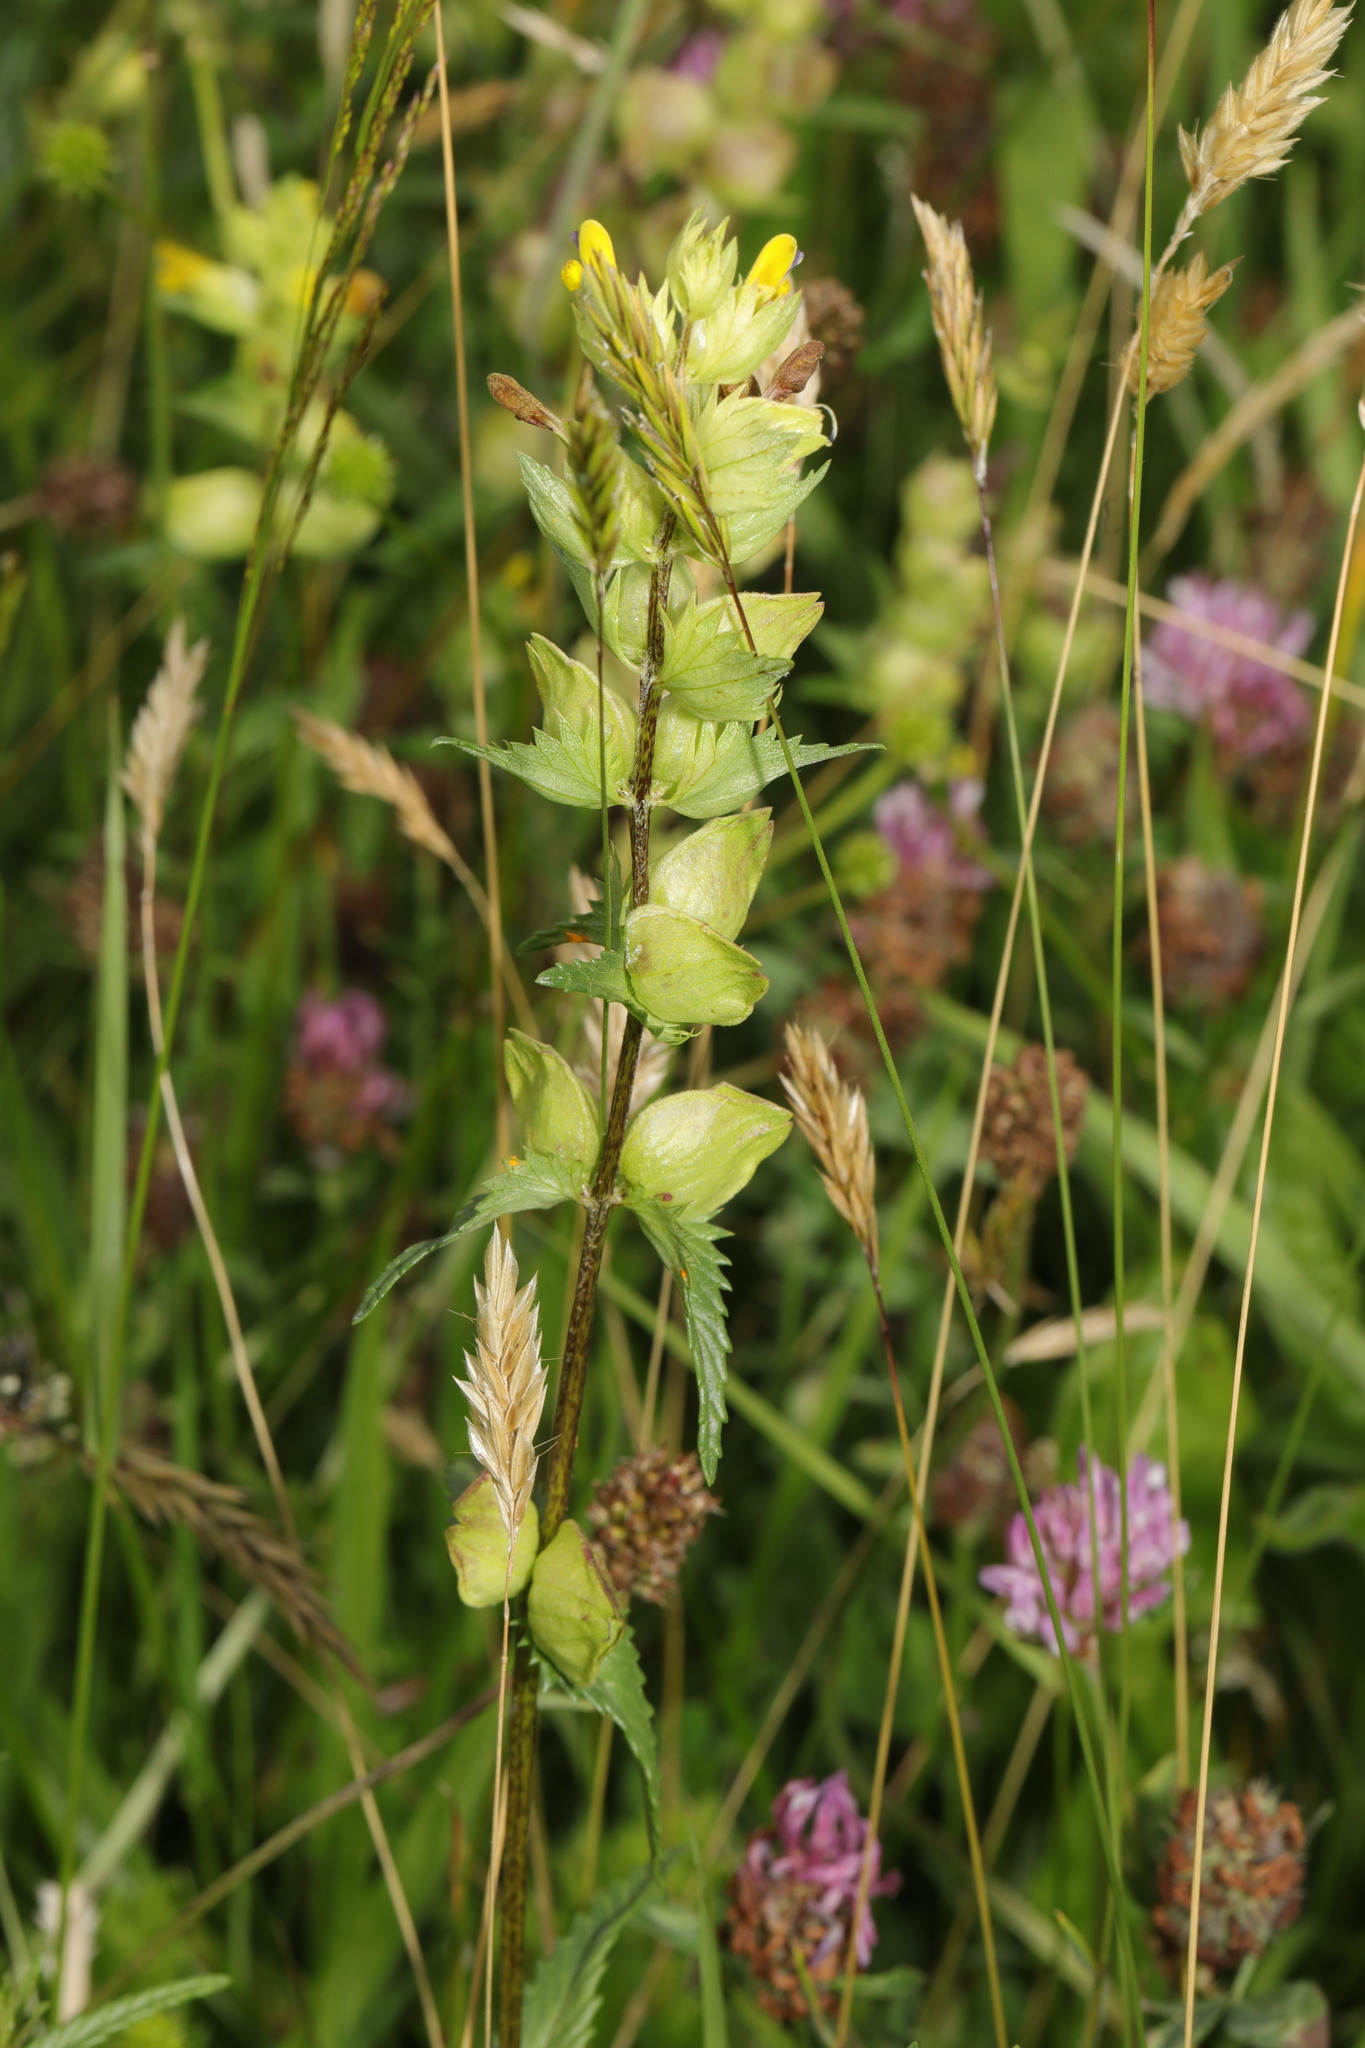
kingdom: Plantae
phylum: Tracheophyta
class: Magnoliopsida
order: Lamiales
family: Orobanchaceae
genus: Rhinanthus
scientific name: Rhinanthus minor
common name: Yellow-rattle
